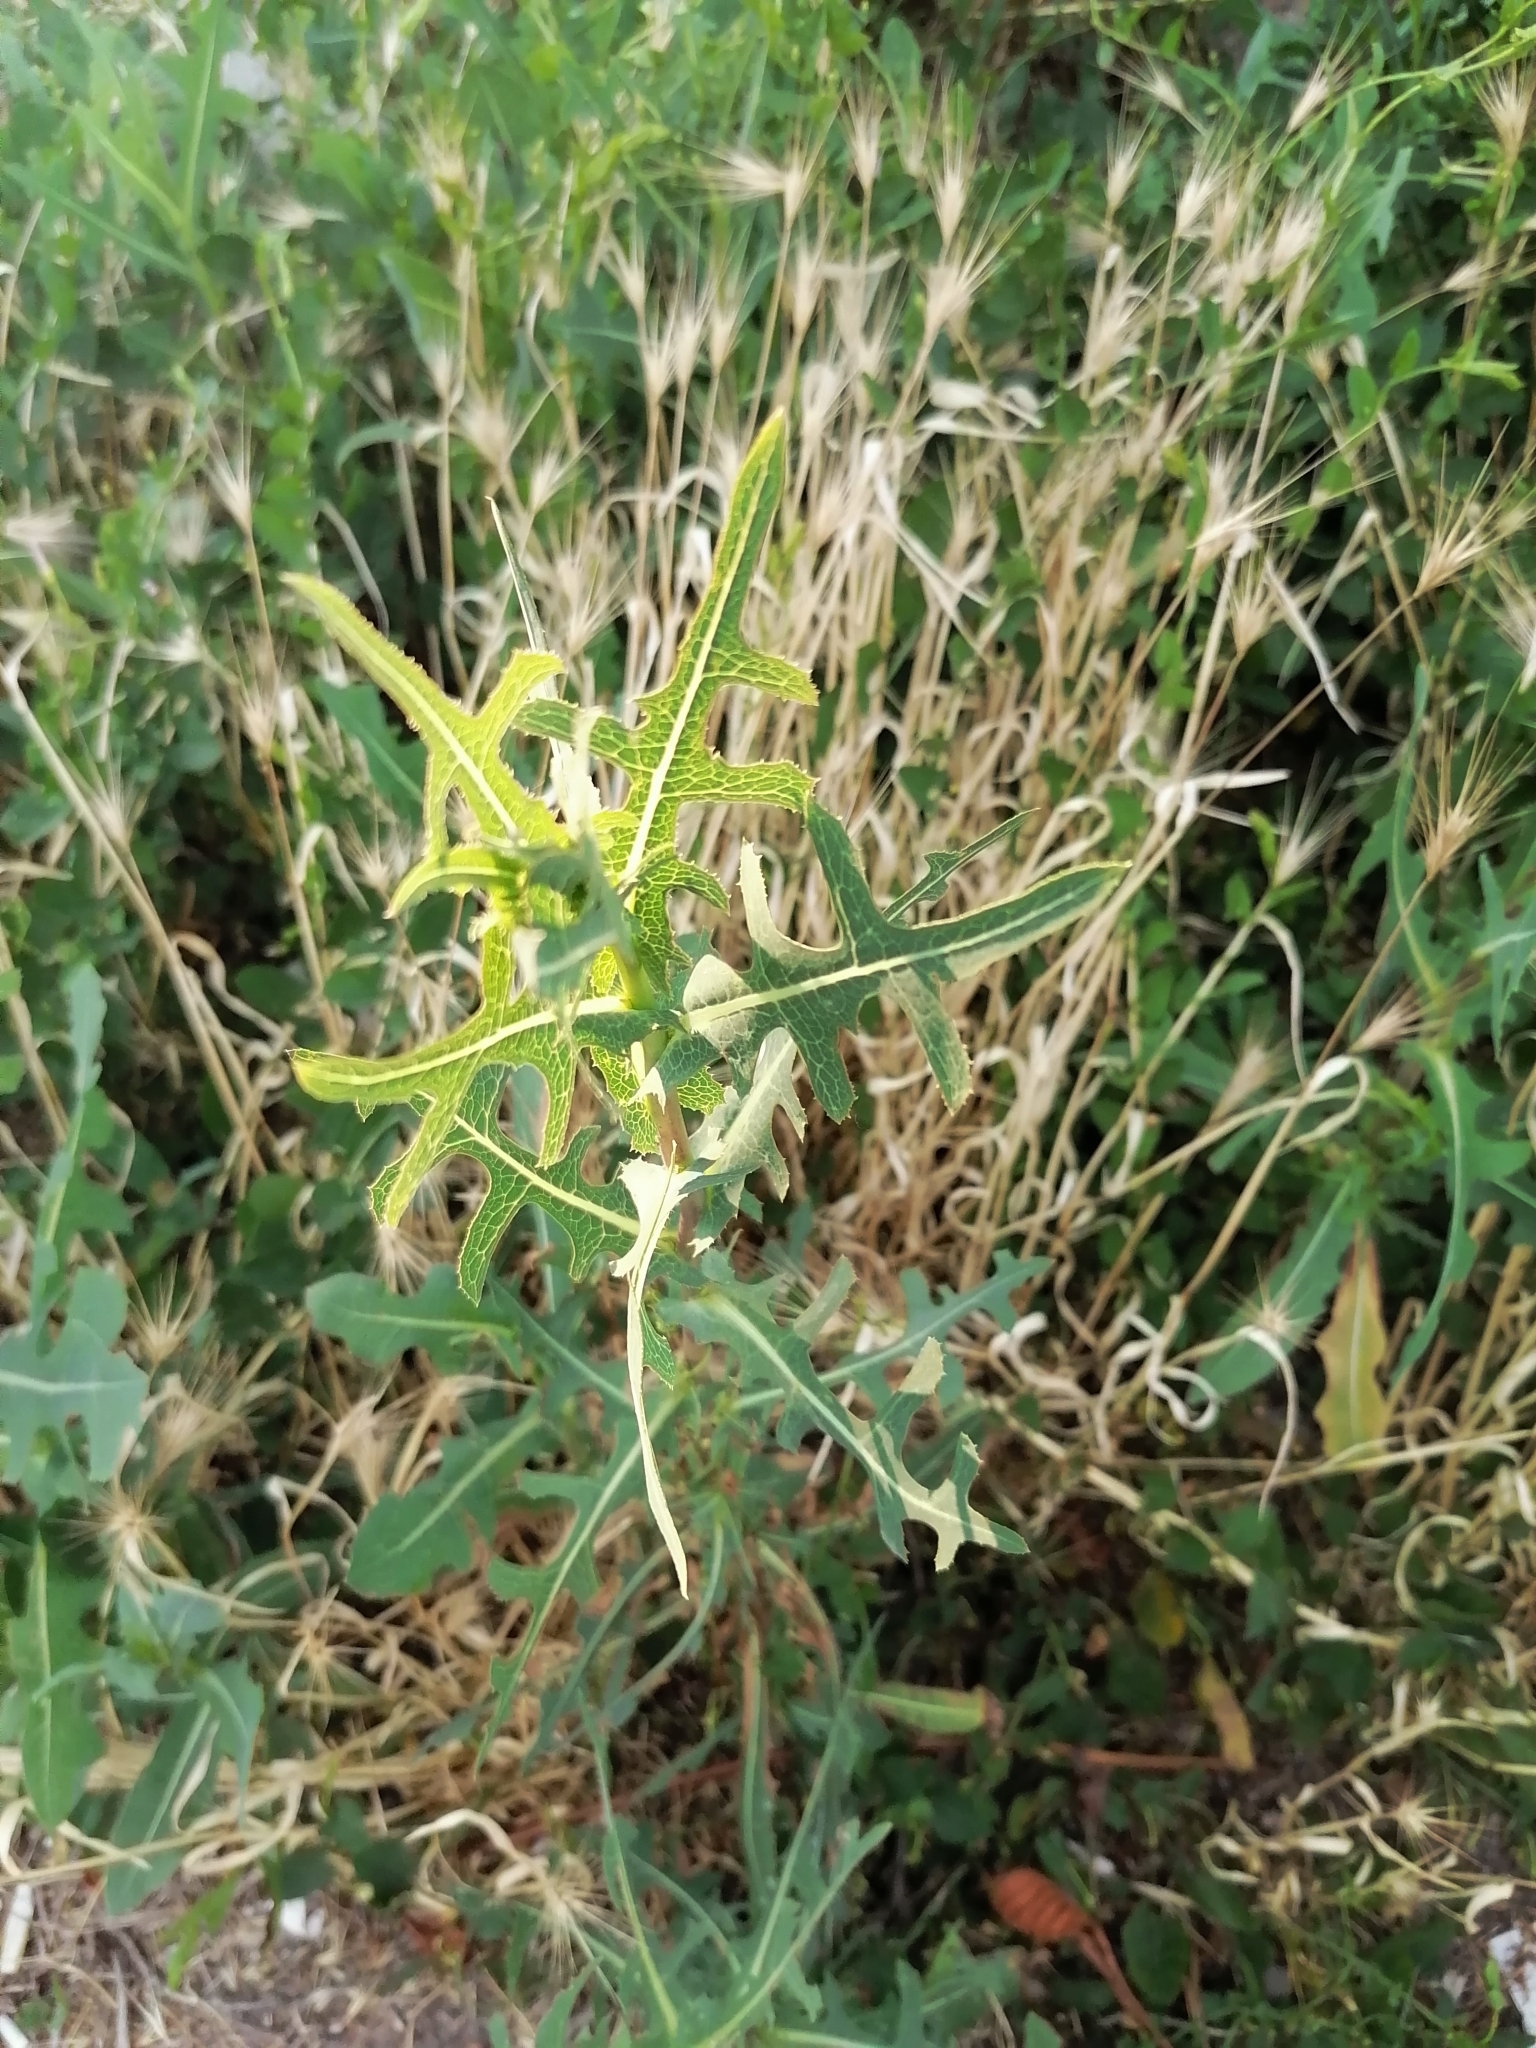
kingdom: Plantae
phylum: Tracheophyta
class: Magnoliopsida
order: Asterales
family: Asteraceae
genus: Lactuca
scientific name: Lactuca serriola
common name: Prickly lettuce
